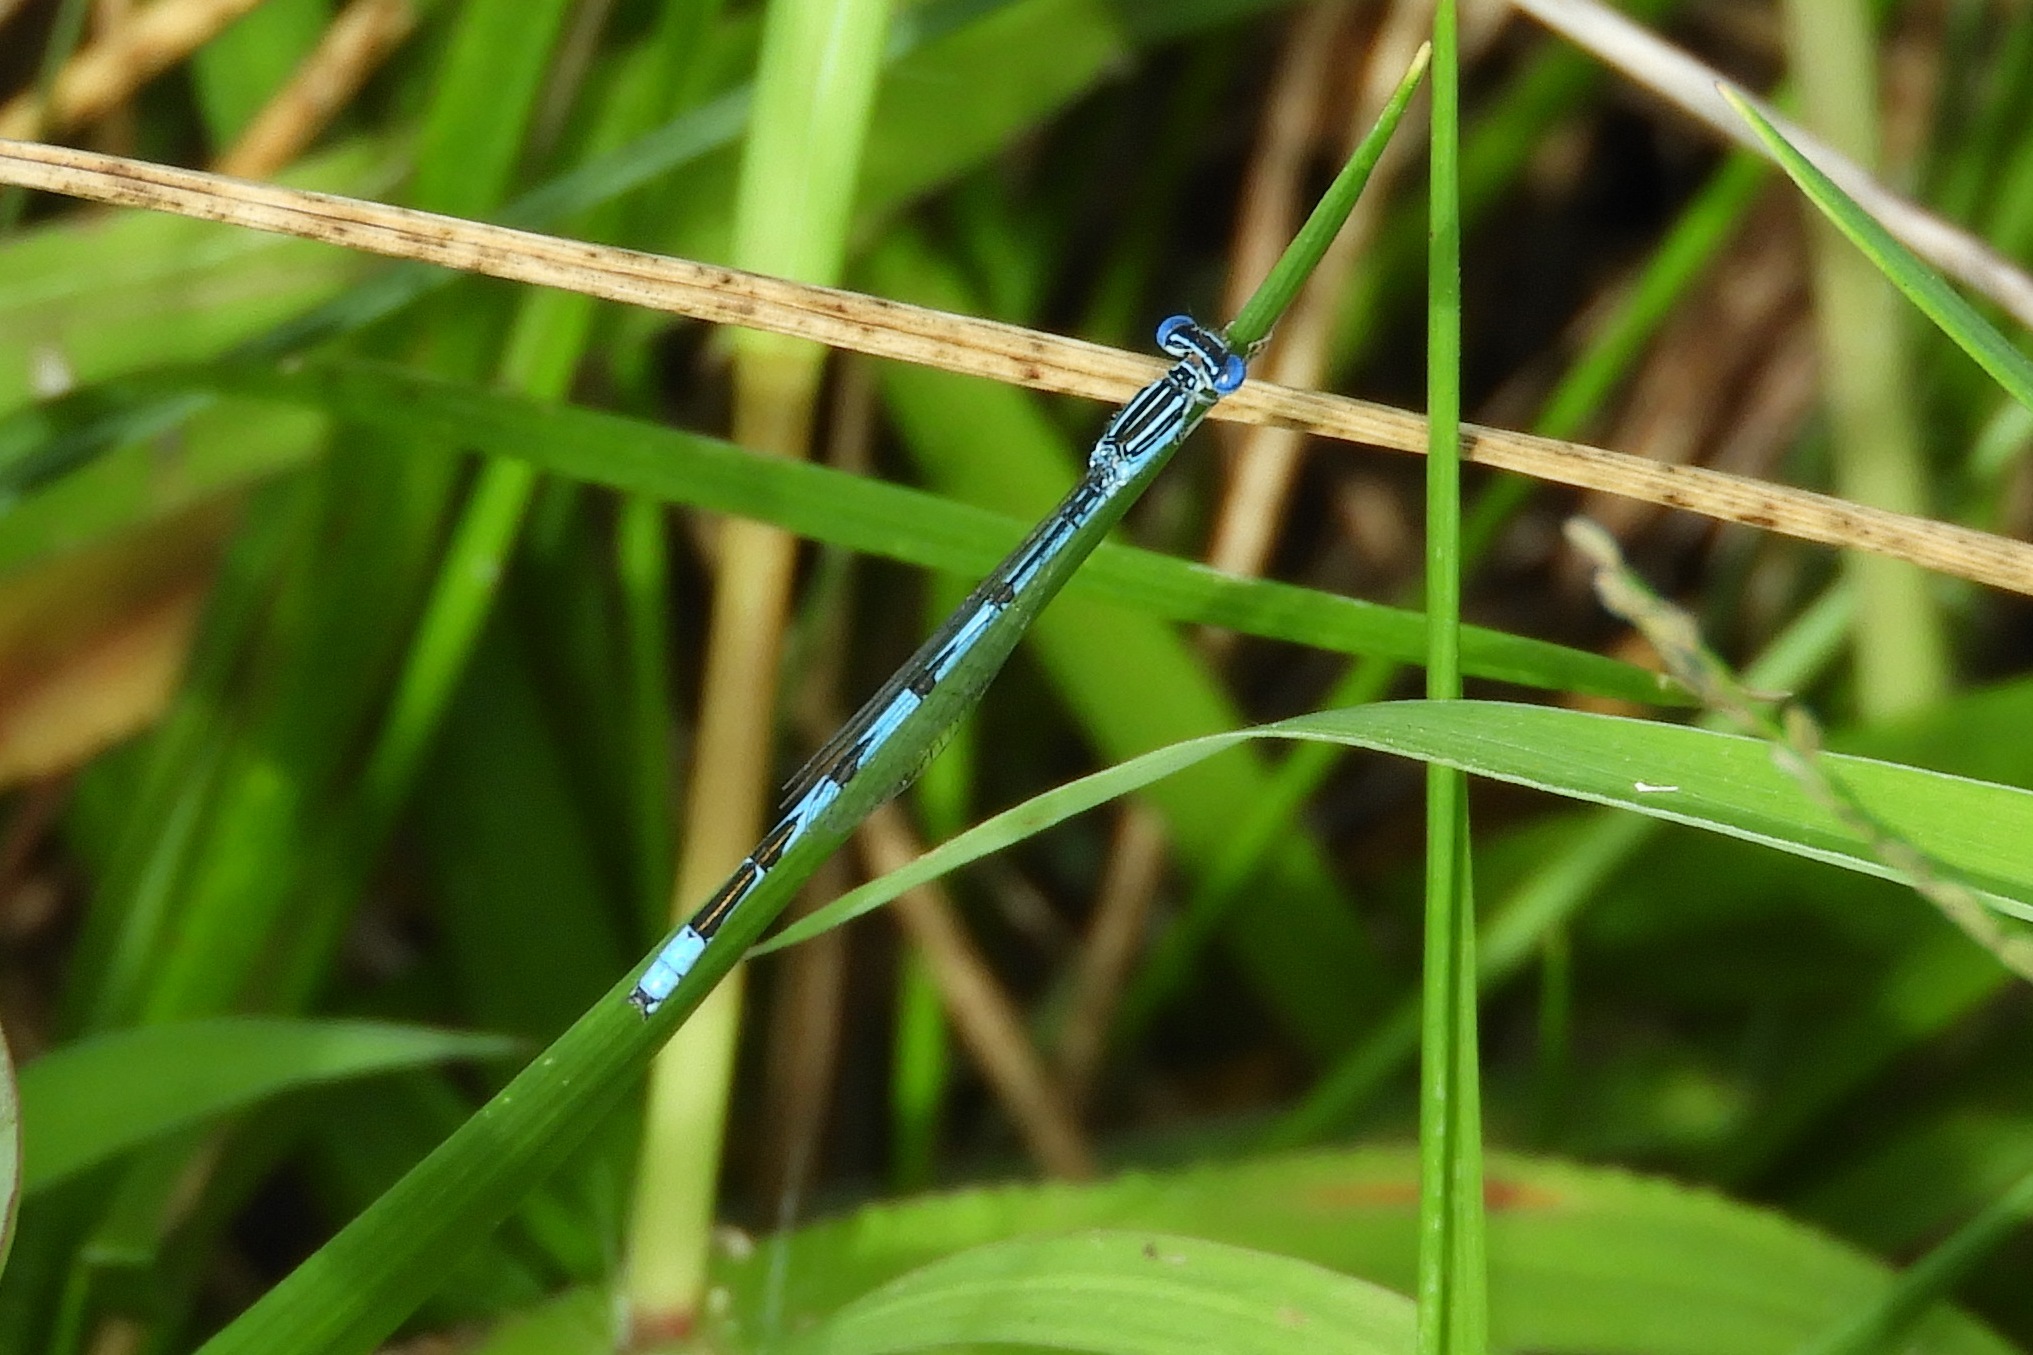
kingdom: Animalia
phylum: Arthropoda
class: Insecta
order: Odonata
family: Coenagrionidae
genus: Enallagma
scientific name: Enallagma basidens
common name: Double-striped bluet
